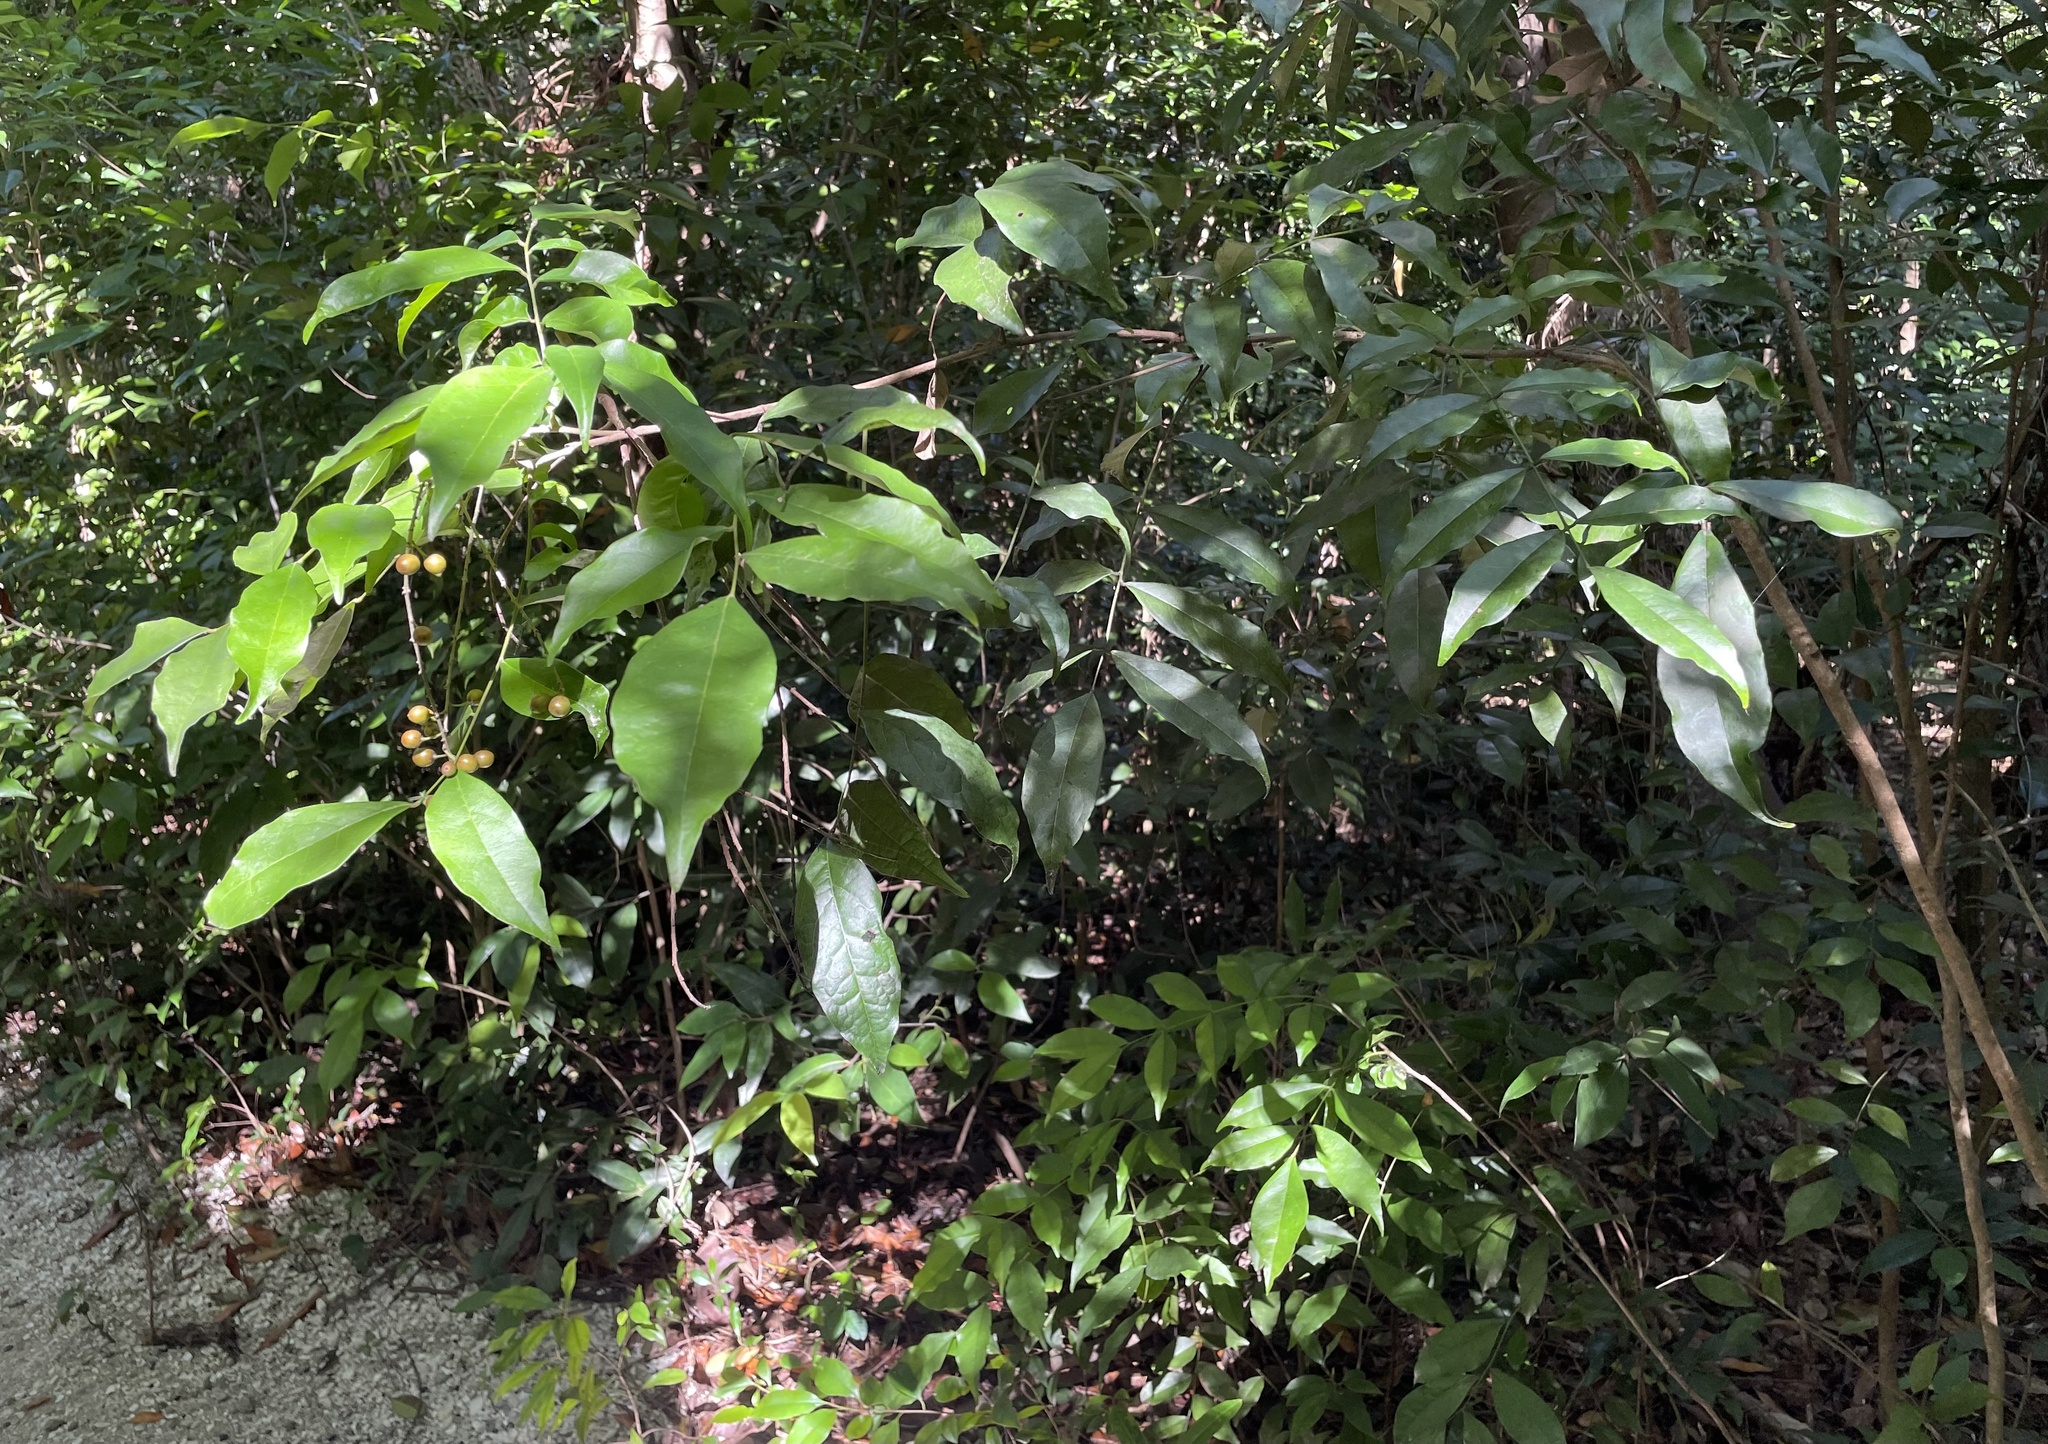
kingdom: Plantae
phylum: Tracheophyta
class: Magnoliopsida
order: Picramniales
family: Picramniaceae
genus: Picramnia
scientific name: Picramnia pentandra
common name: Florida bitterbush
